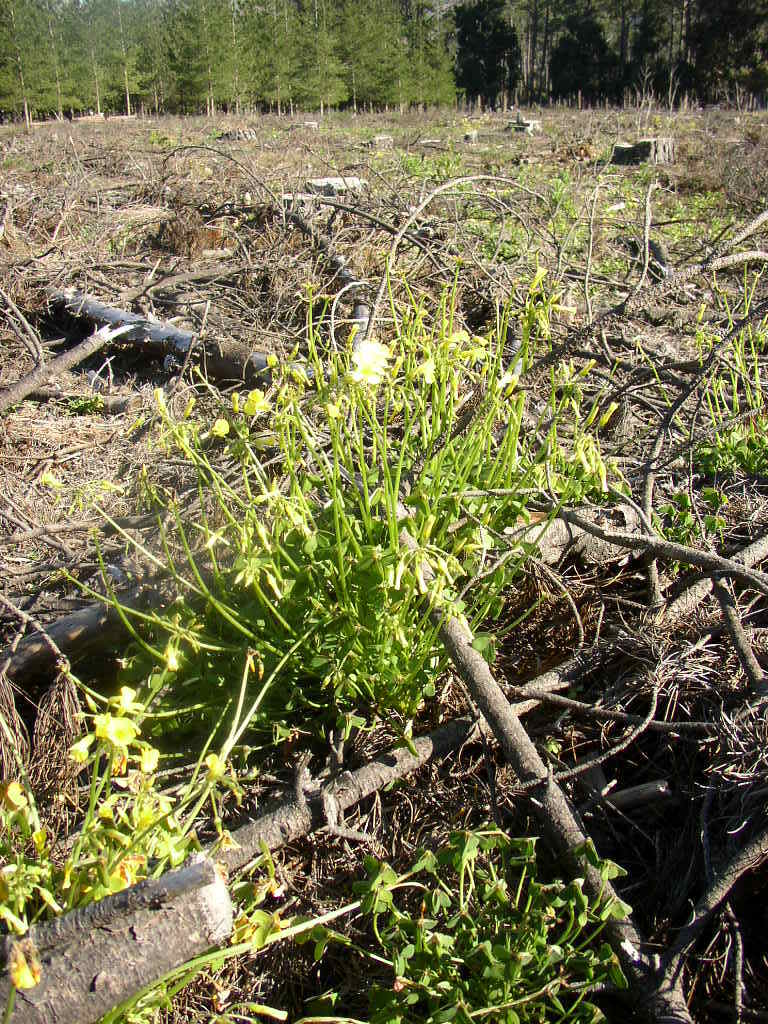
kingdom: Plantae
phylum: Tracheophyta
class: Magnoliopsida
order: Oxalidales
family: Oxalidaceae
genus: Oxalis
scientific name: Oxalis pes-caprae
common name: Bermuda-buttercup
